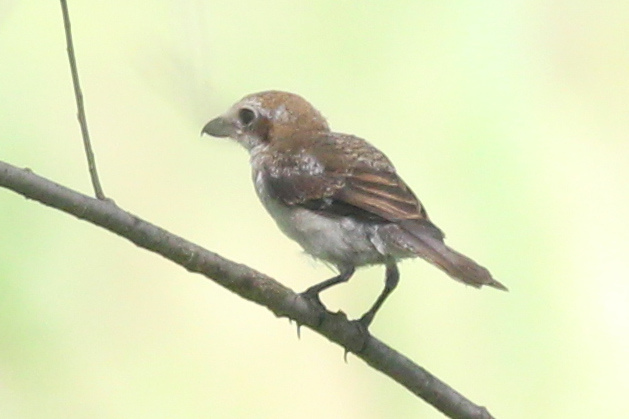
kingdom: Animalia
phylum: Chordata
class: Aves
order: Passeriformes
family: Laniidae
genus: Lanius
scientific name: Lanius bucephalus
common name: Bull-headed shrike
